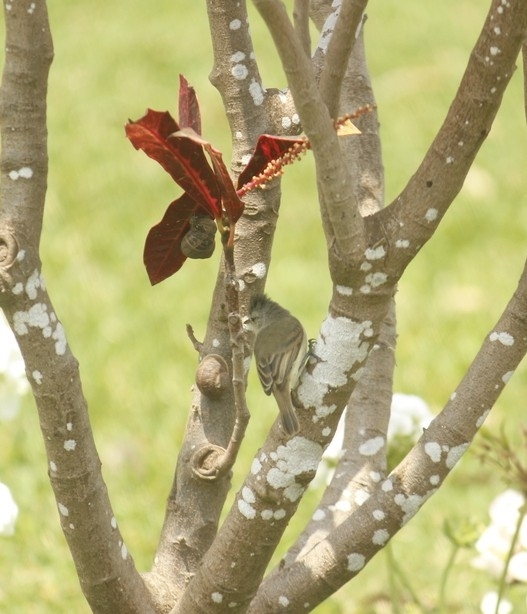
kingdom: Animalia
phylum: Mollusca
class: Gastropoda
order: Stylommatophora
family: Helicidae
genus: Cornu
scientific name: Cornu aspersum
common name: Brown garden snail
